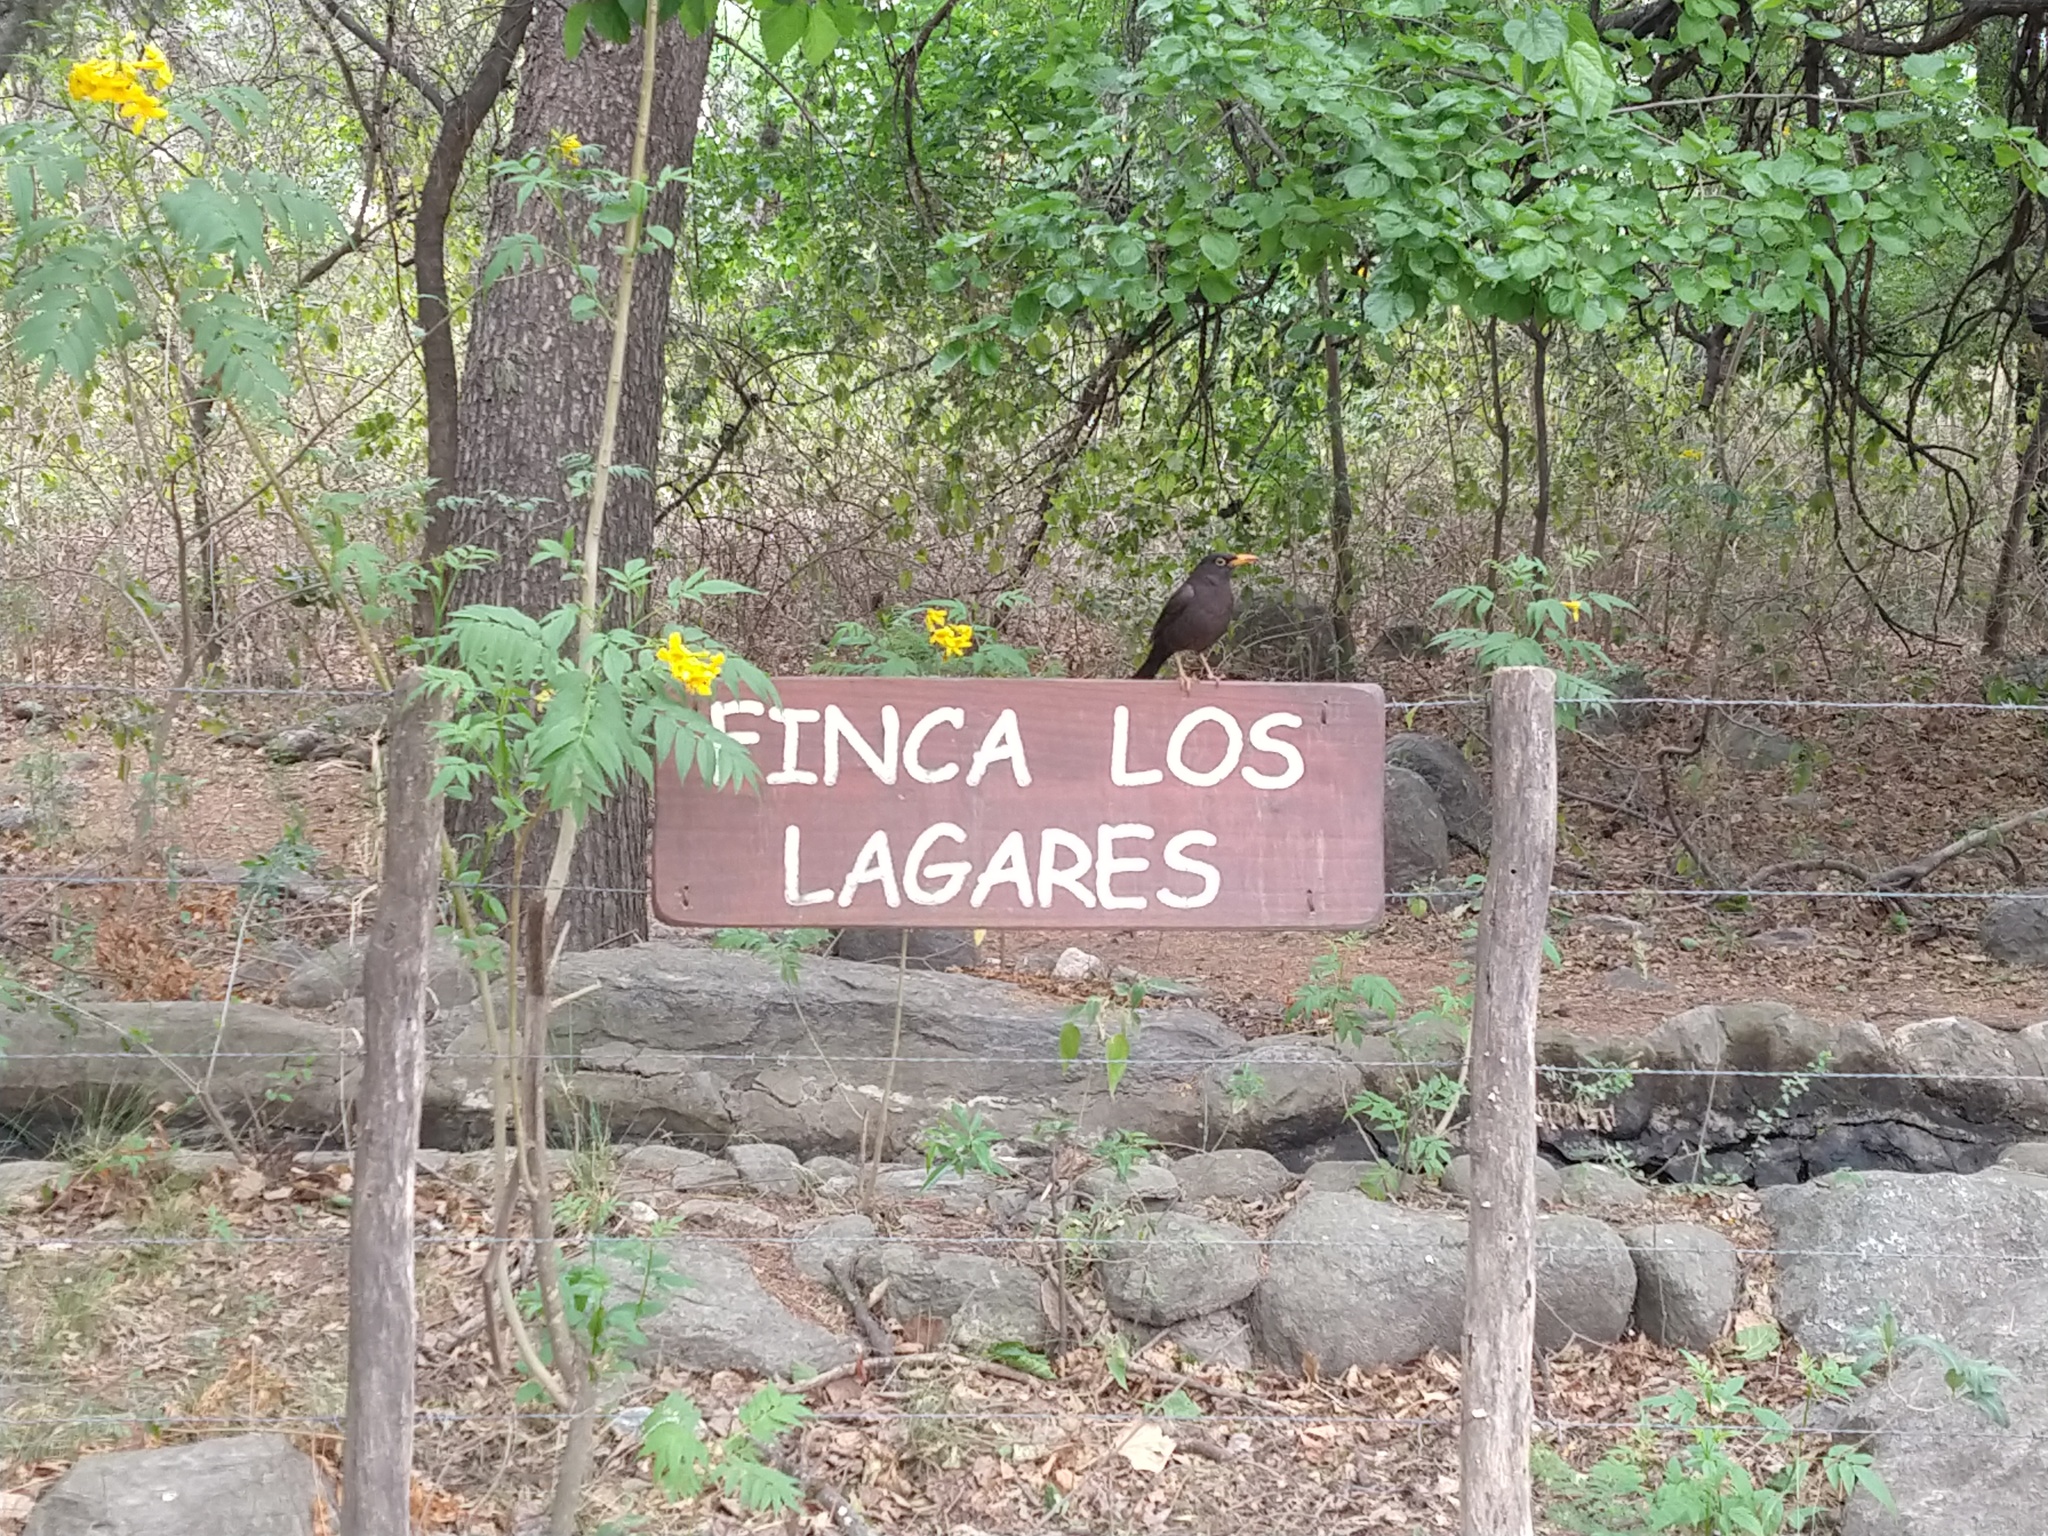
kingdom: Animalia
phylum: Chordata
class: Aves
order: Passeriformes
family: Turdidae
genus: Turdus
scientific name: Turdus chiguanco
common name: Chiguanco thrush
